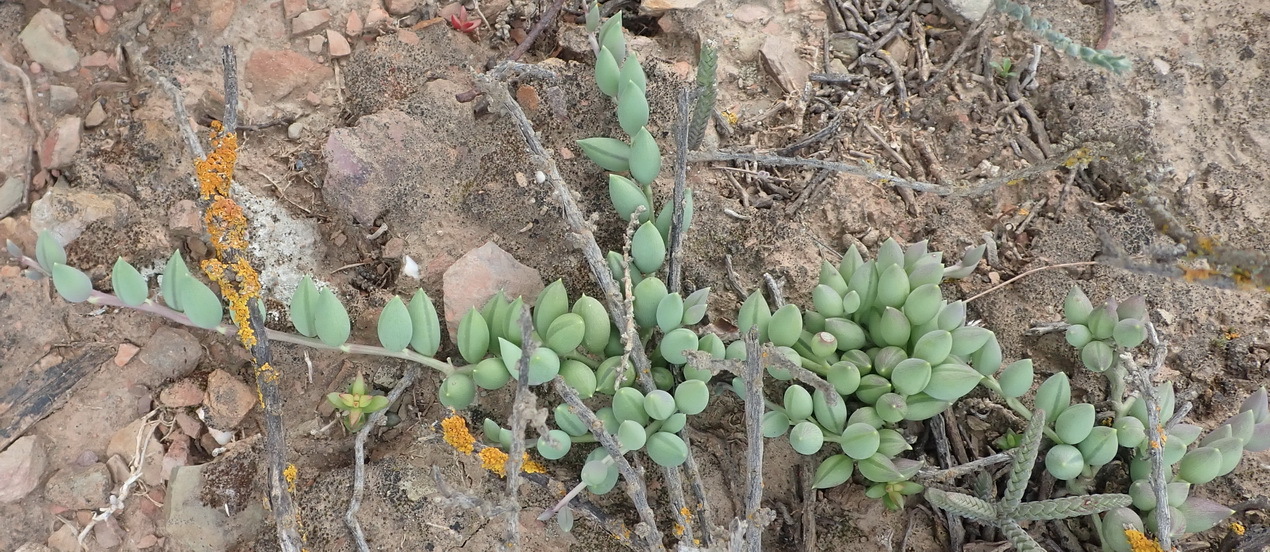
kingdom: Plantae
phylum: Tracheophyta
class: Magnoliopsida
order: Asterales
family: Asteraceae
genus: Curio
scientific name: Curio radicans
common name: Creeping-berry
